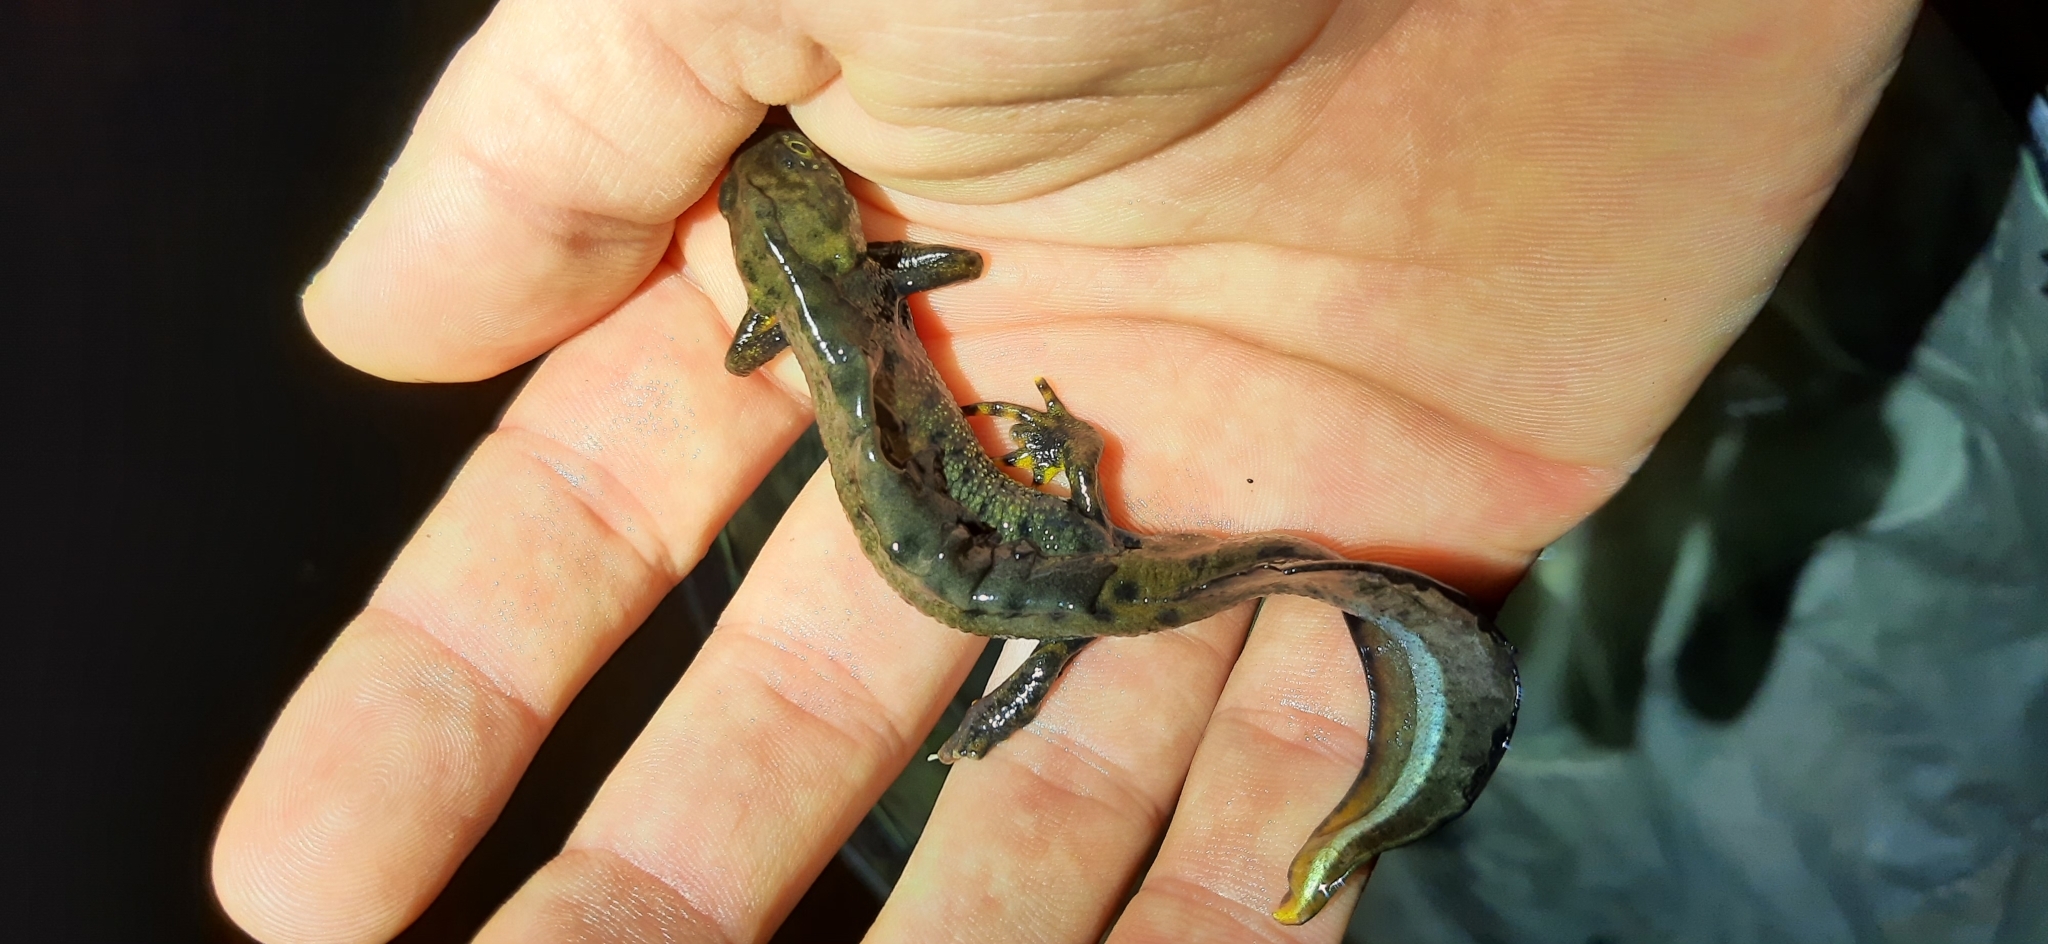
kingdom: Animalia
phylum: Chordata
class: Amphibia
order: Caudata
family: Salamandridae
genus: Triturus
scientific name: Triturus cristatus
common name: Crested newt
